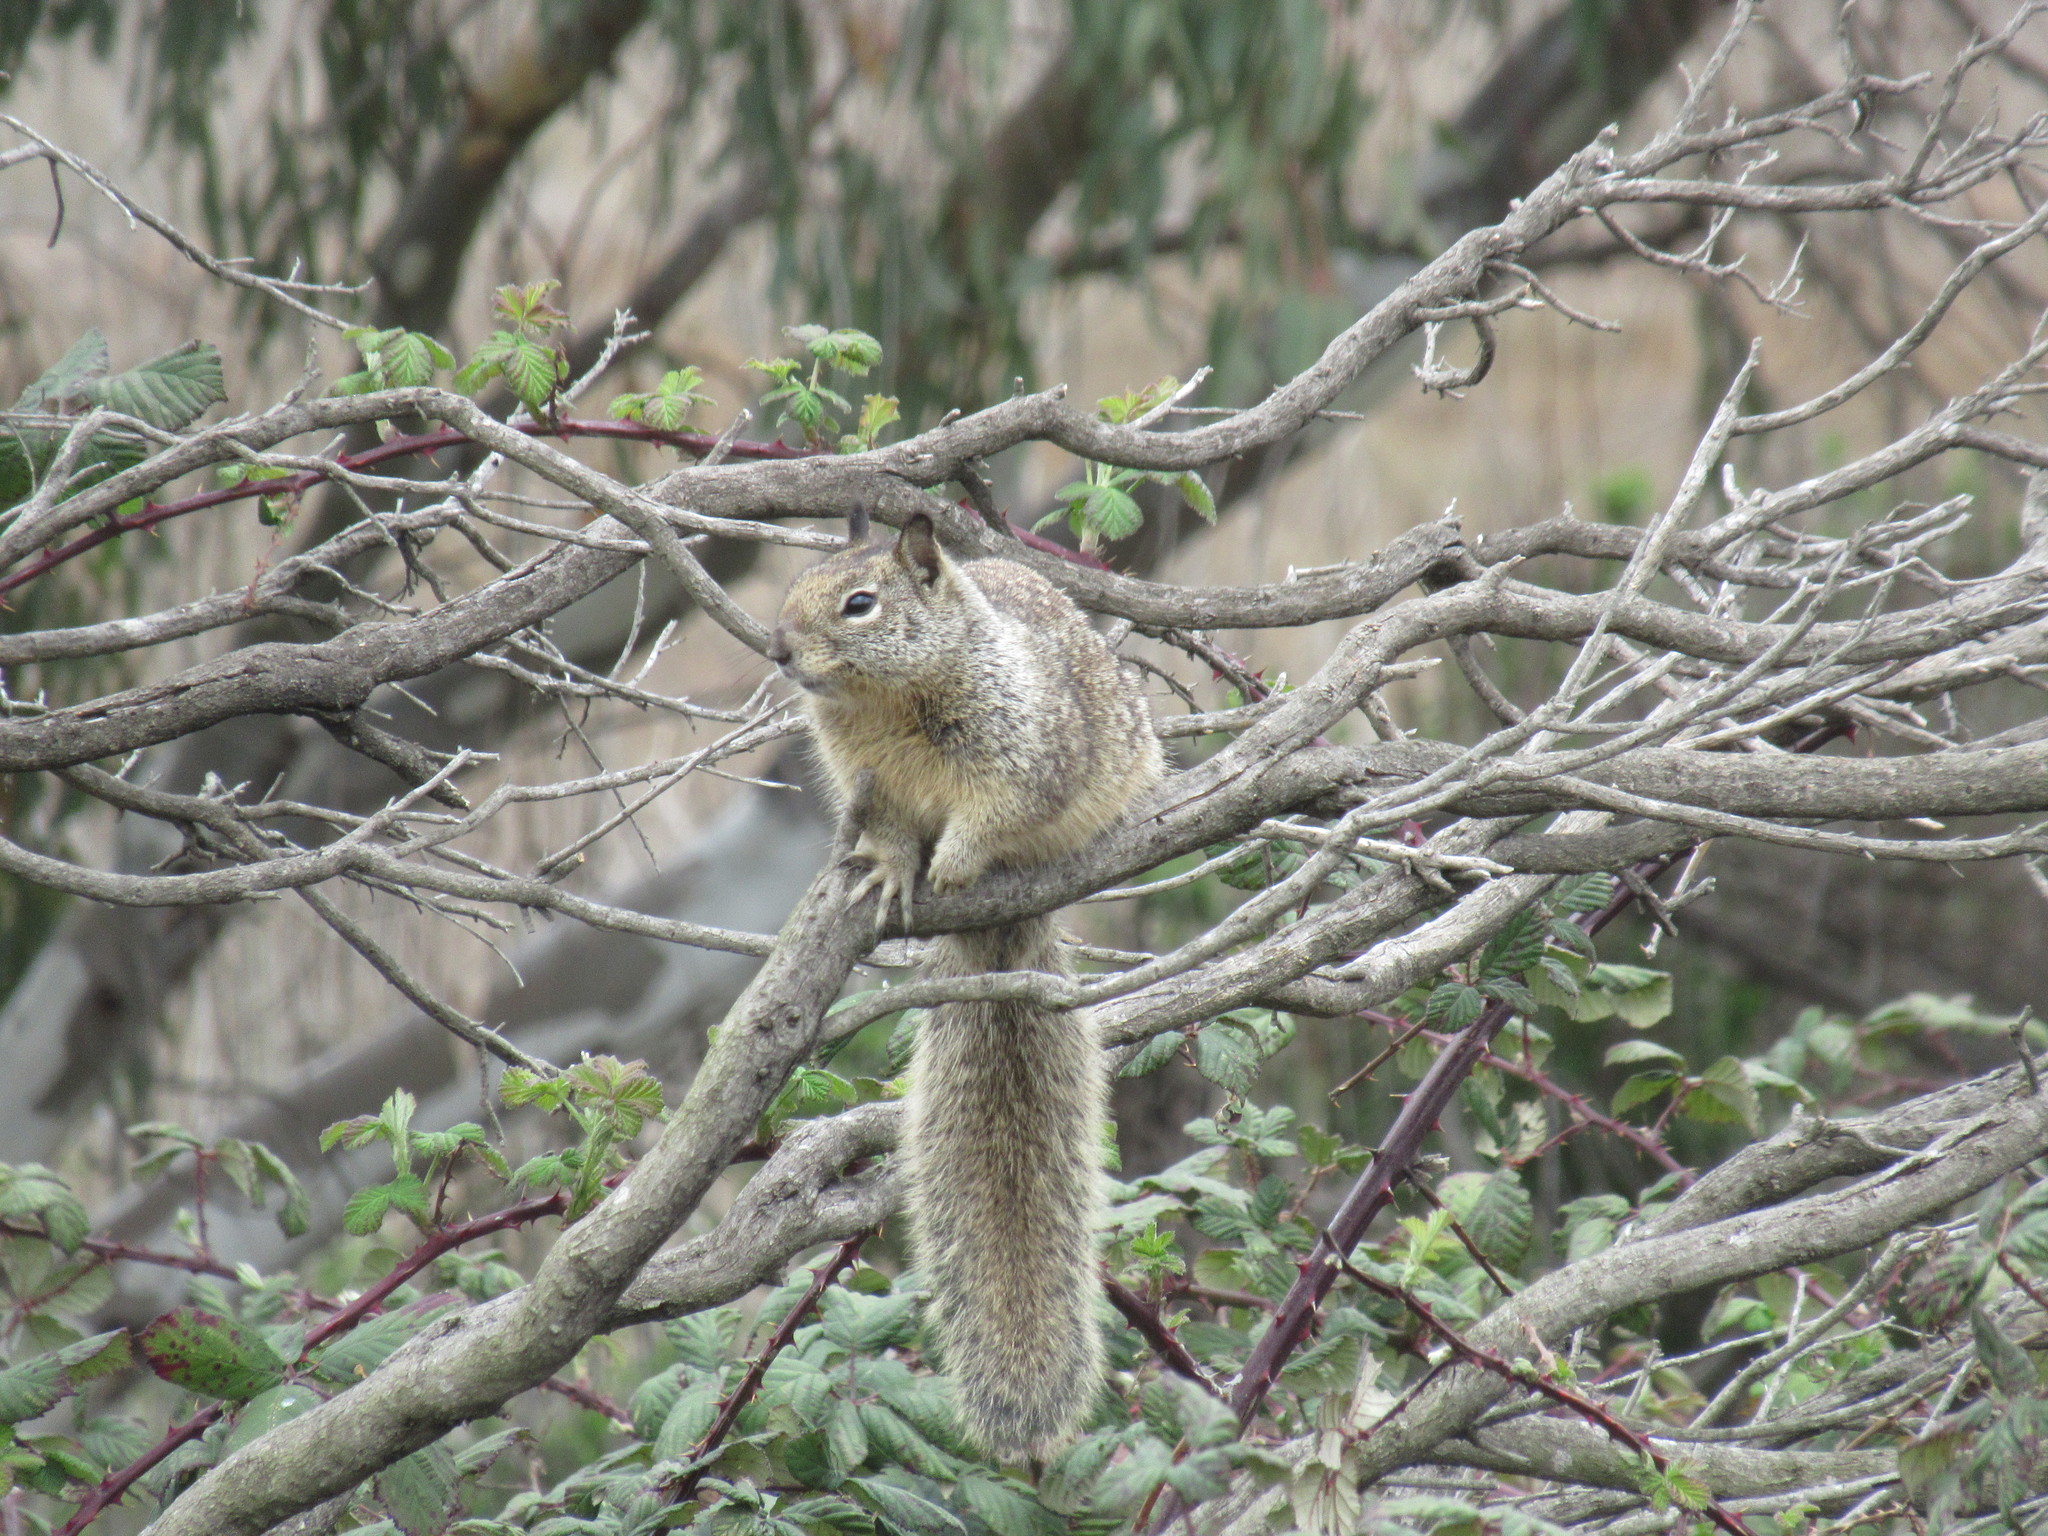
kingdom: Animalia
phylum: Chordata
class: Mammalia
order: Rodentia
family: Sciuridae
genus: Otospermophilus
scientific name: Otospermophilus beecheyi
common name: California ground squirrel
